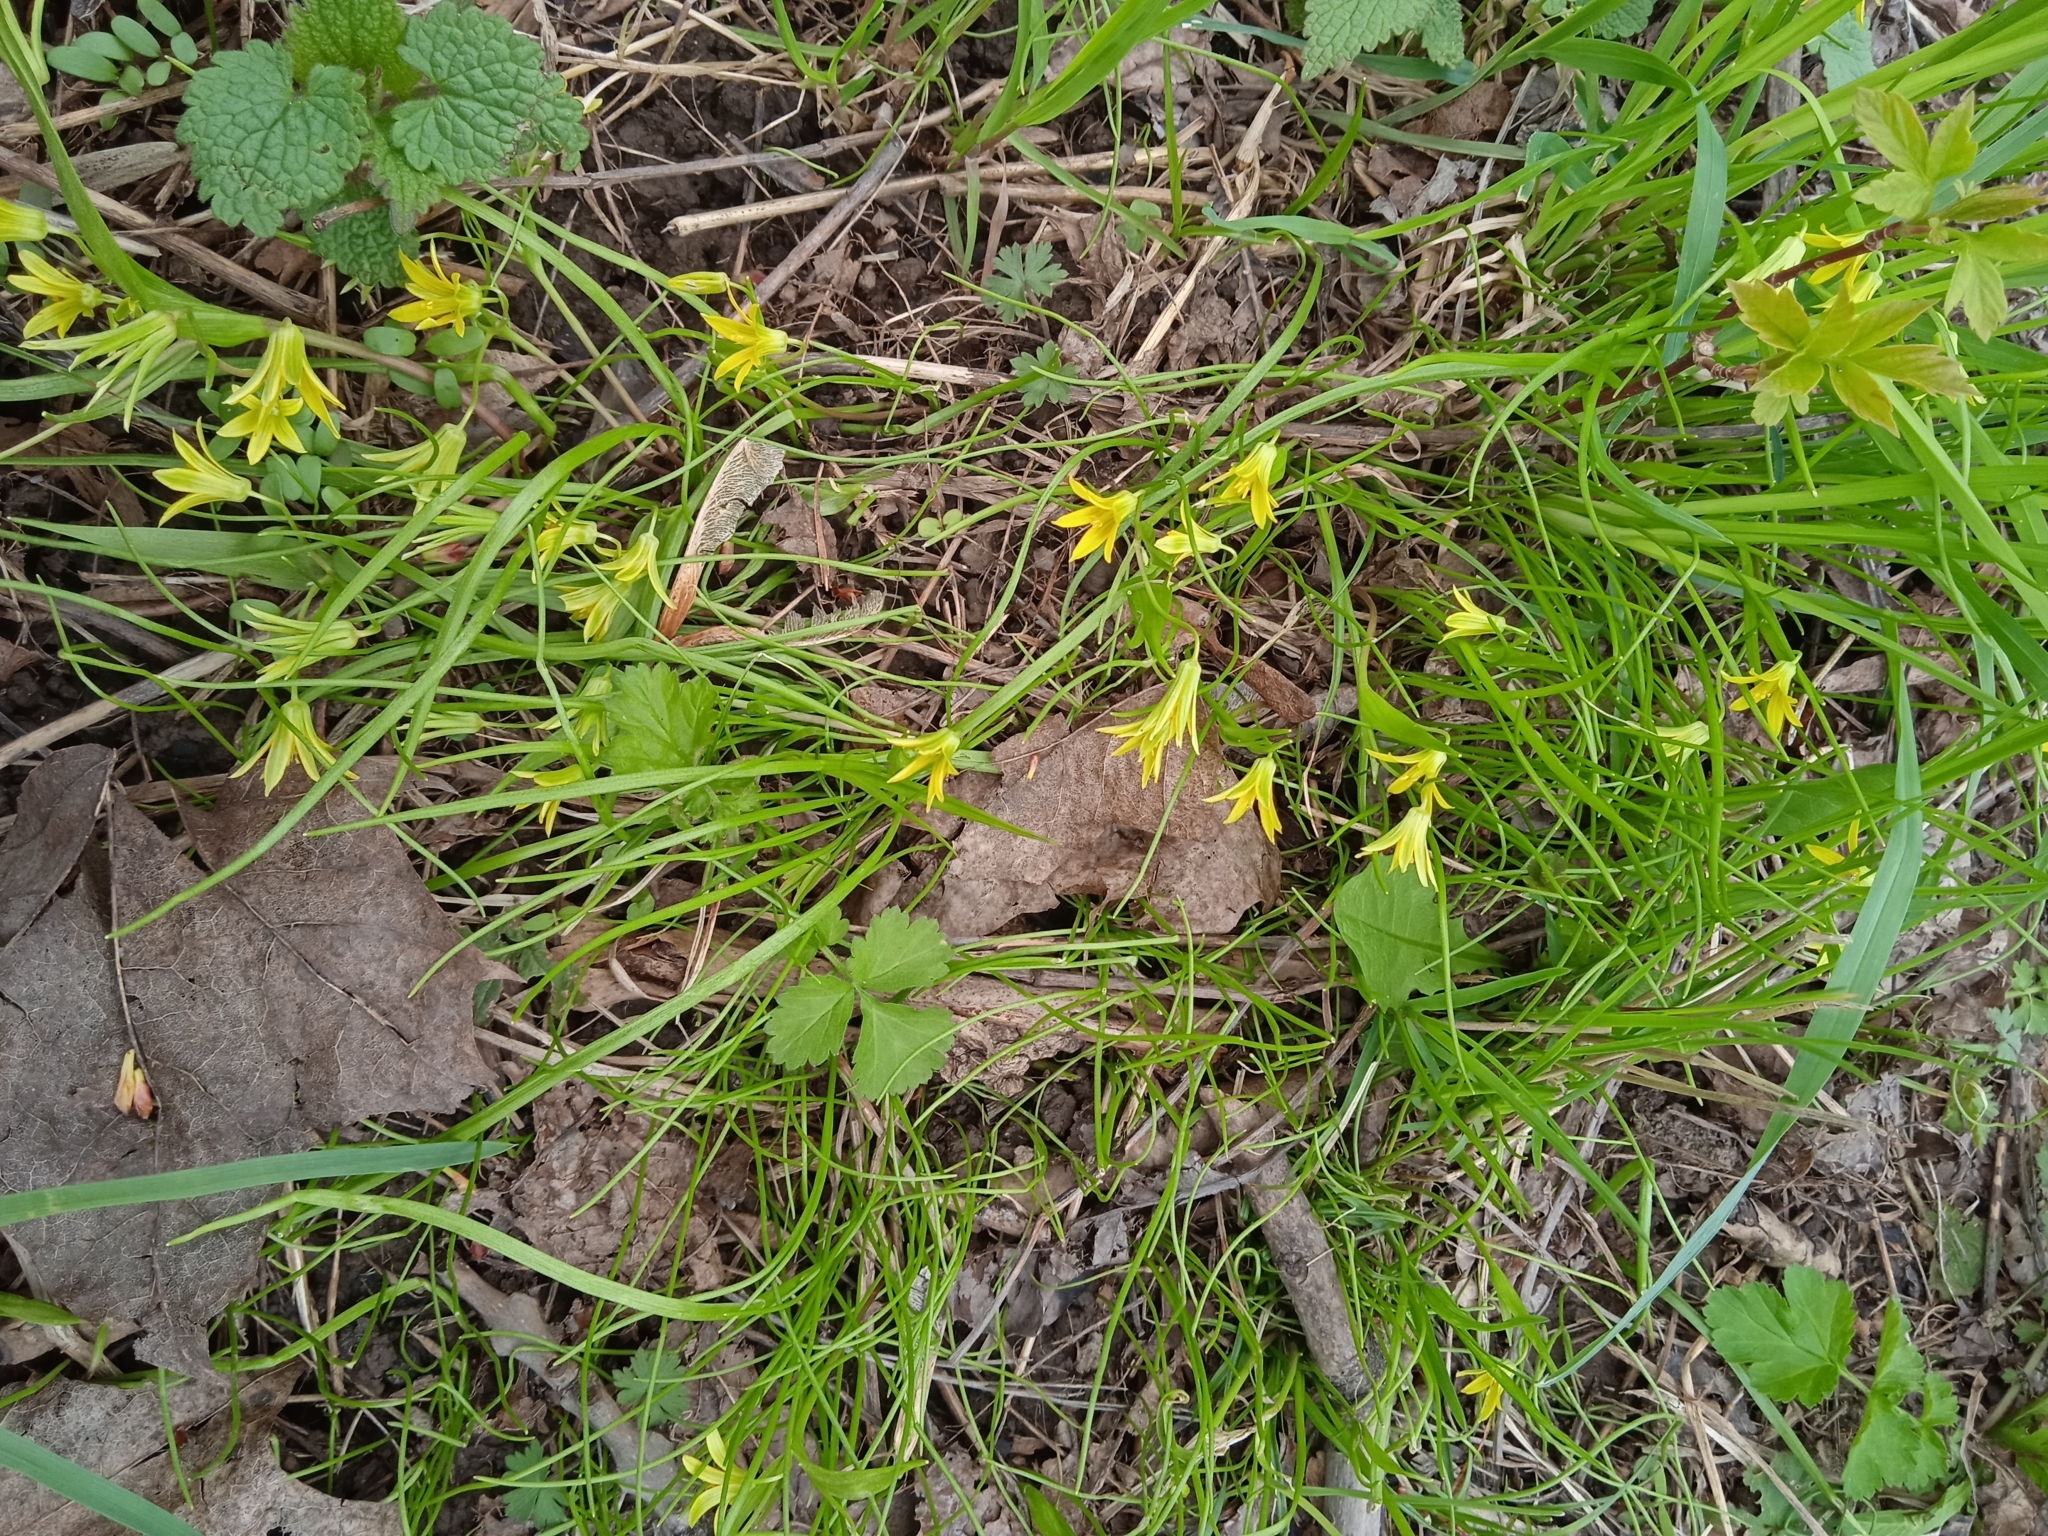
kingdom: Plantae
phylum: Tracheophyta
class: Liliopsida
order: Liliales
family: Liliaceae
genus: Gagea
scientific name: Gagea minima
